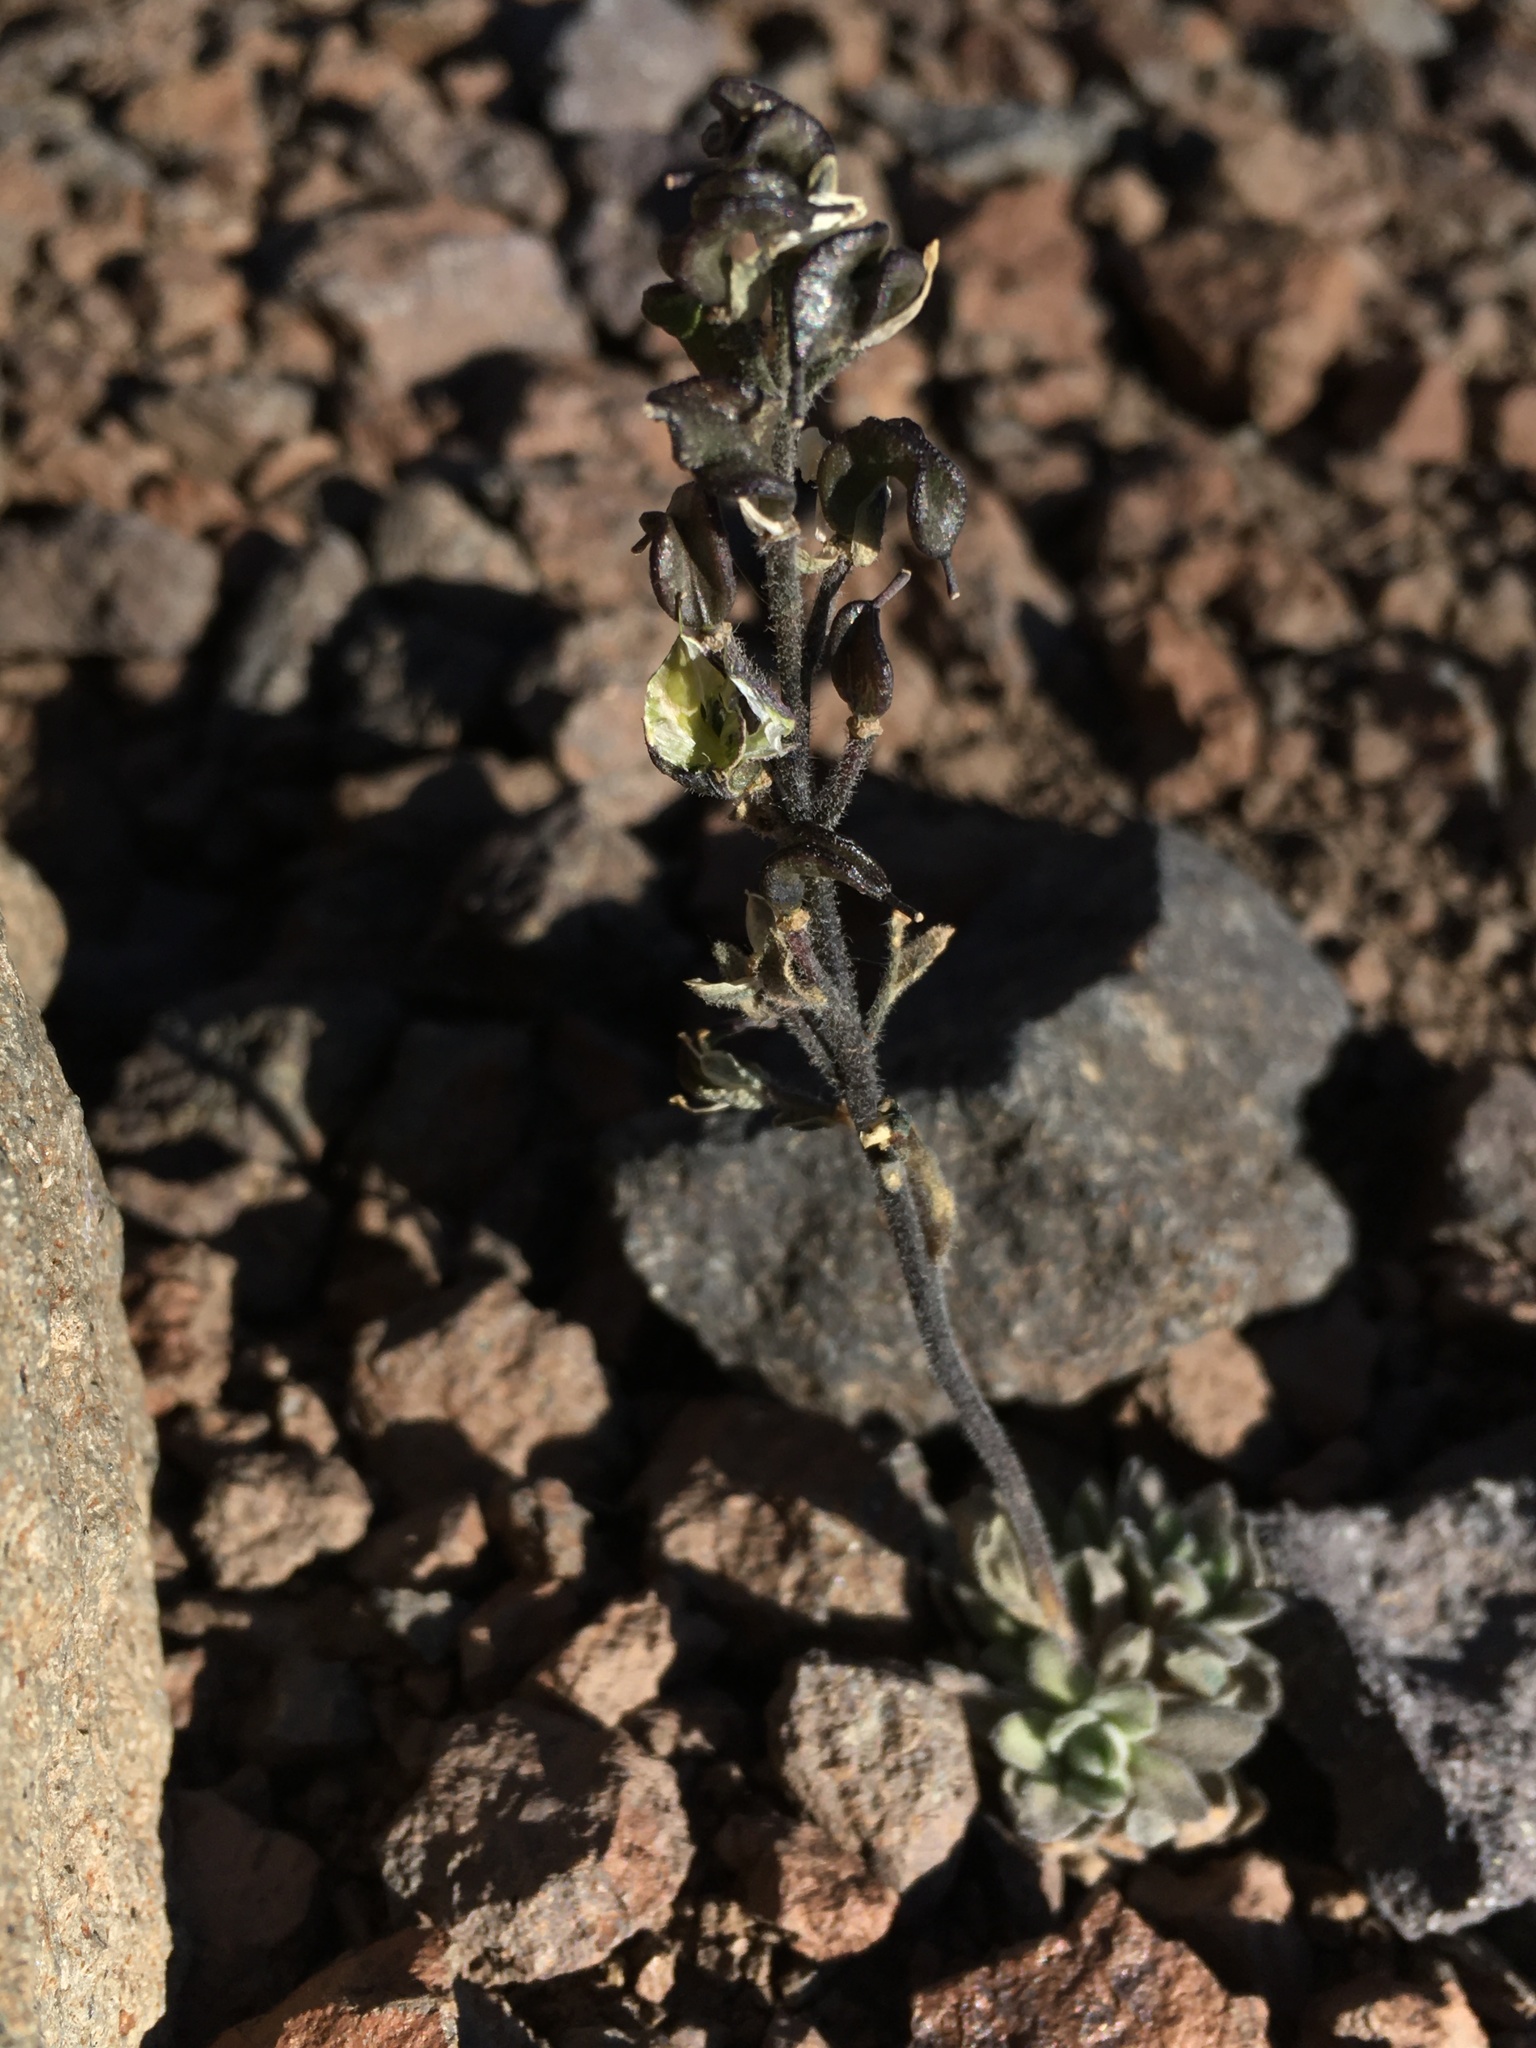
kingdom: Plantae
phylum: Tracheophyta
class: Magnoliopsida
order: Brassicales
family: Brassicaceae
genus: Draba
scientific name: Draba gilliesii
